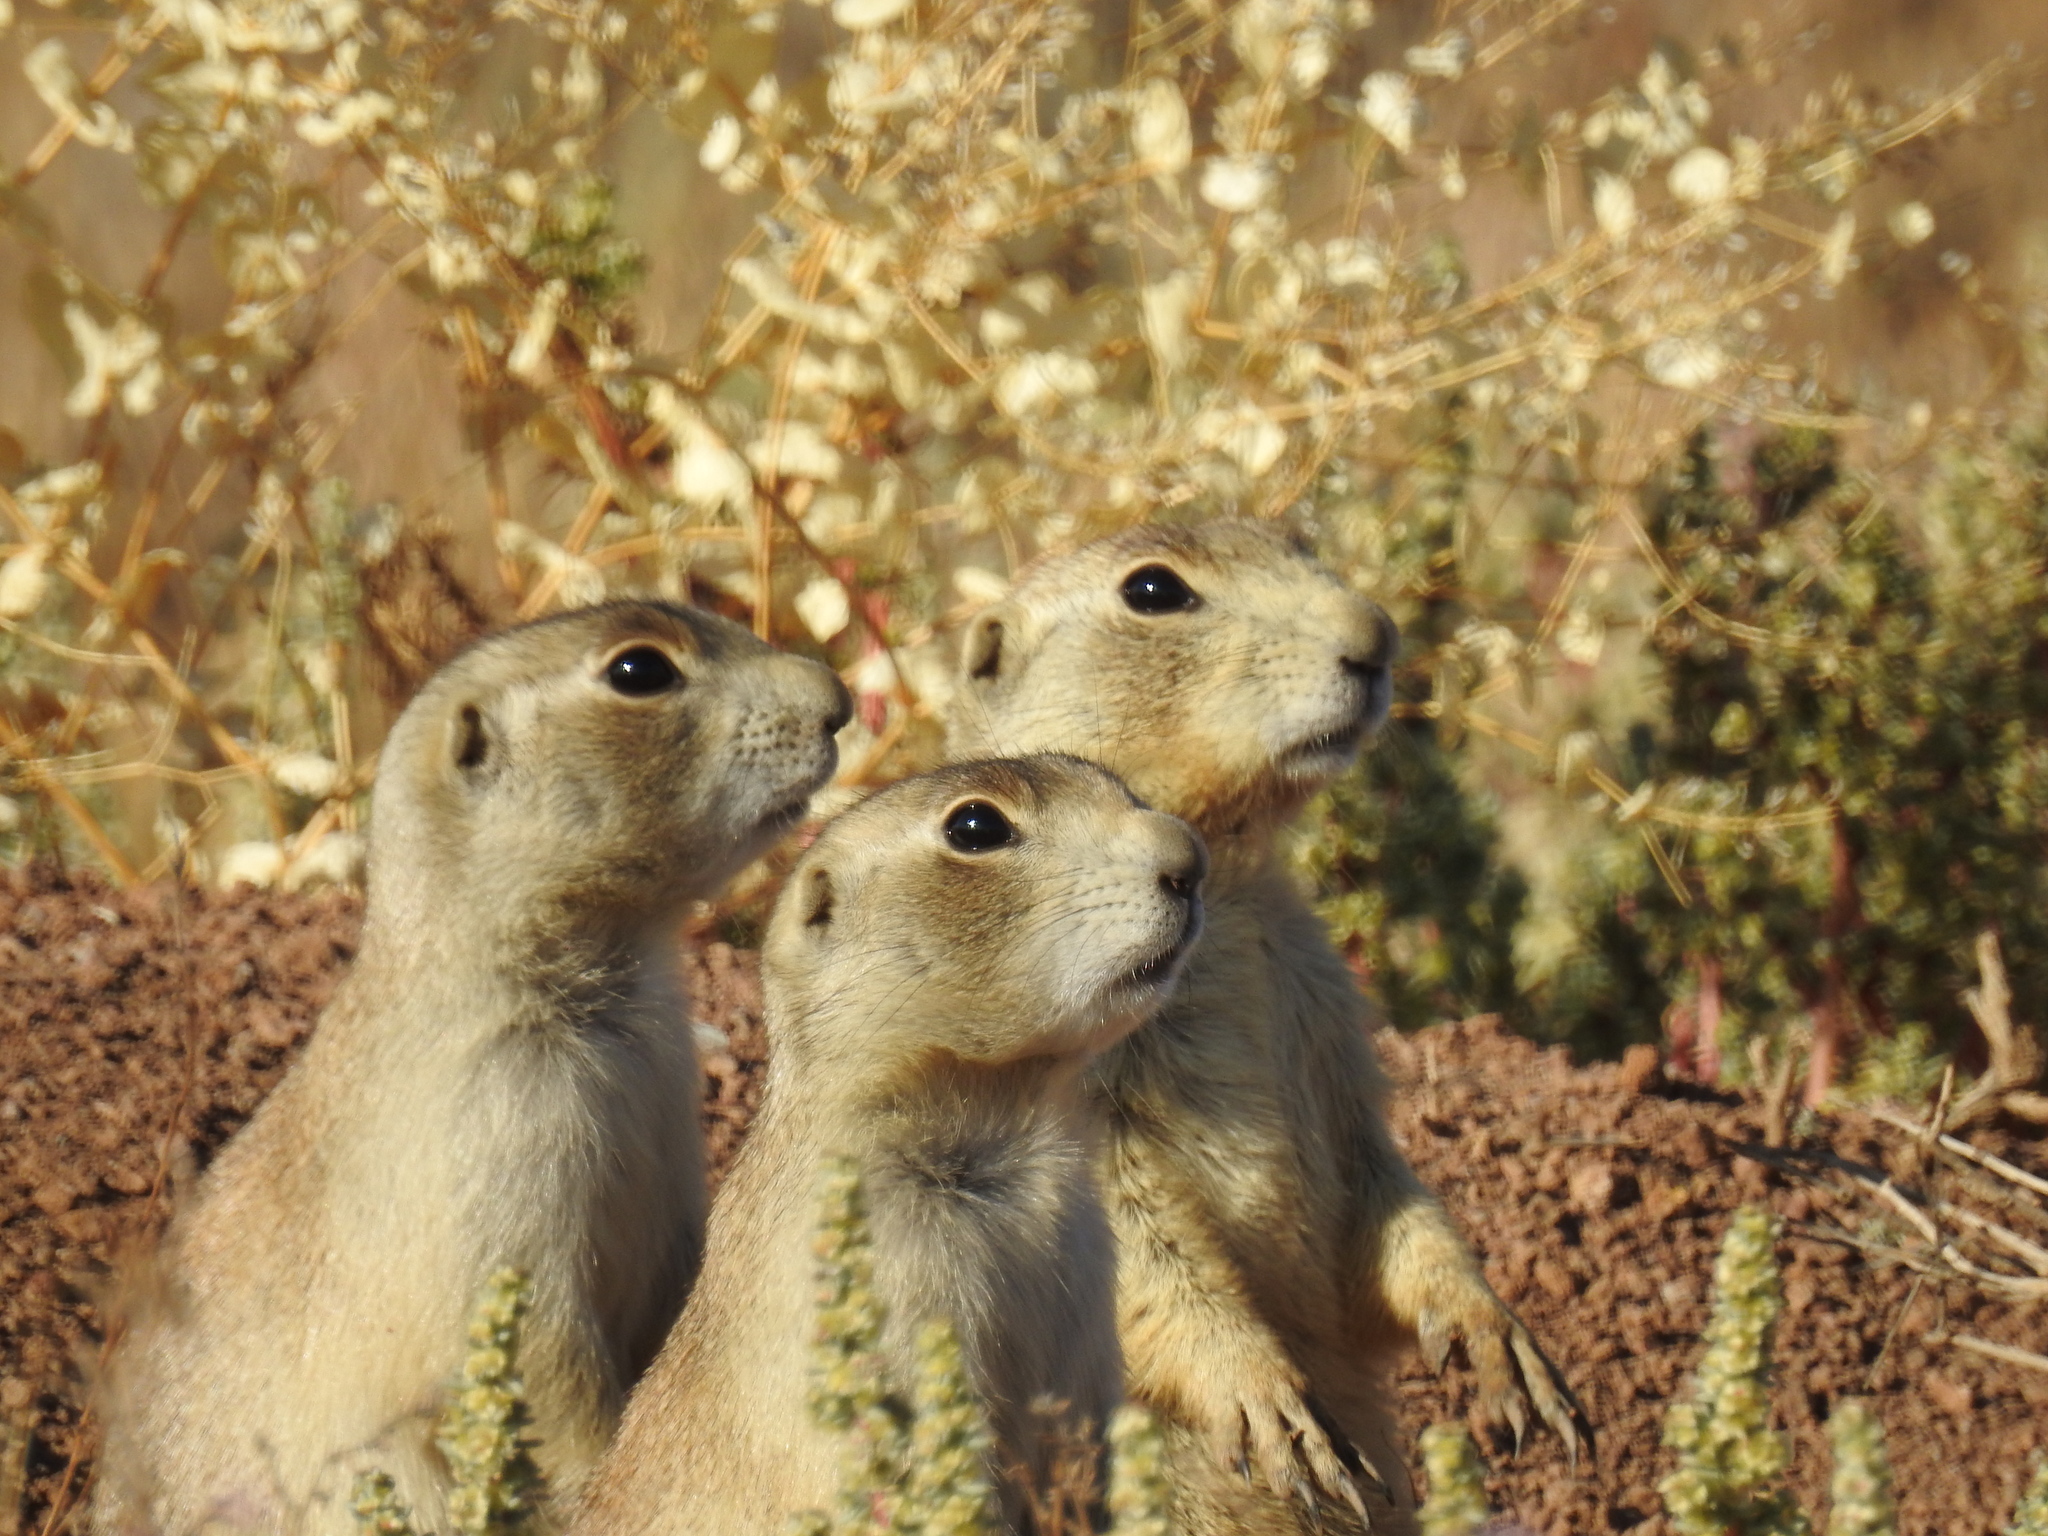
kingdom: Animalia
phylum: Chordata
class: Mammalia
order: Rodentia
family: Sciuridae
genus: Cynomys
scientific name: Cynomys leucurus
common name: White-tailed prairie dog
